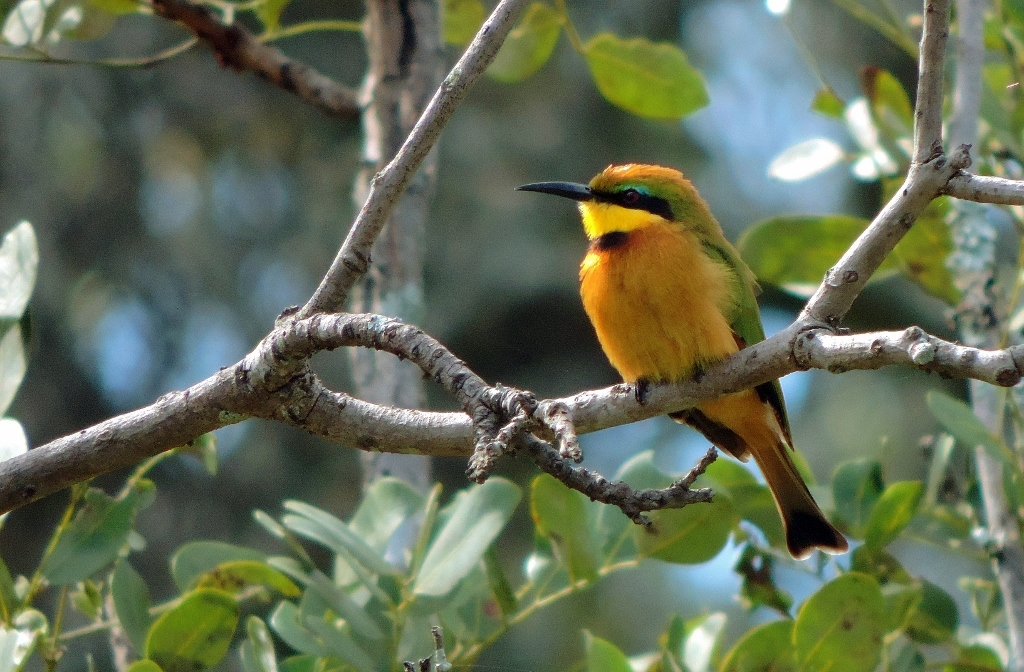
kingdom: Animalia
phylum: Chordata
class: Aves
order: Coraciiformes
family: Meropidae
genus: Merops
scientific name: Merops pusillus
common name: Little bee-eater
